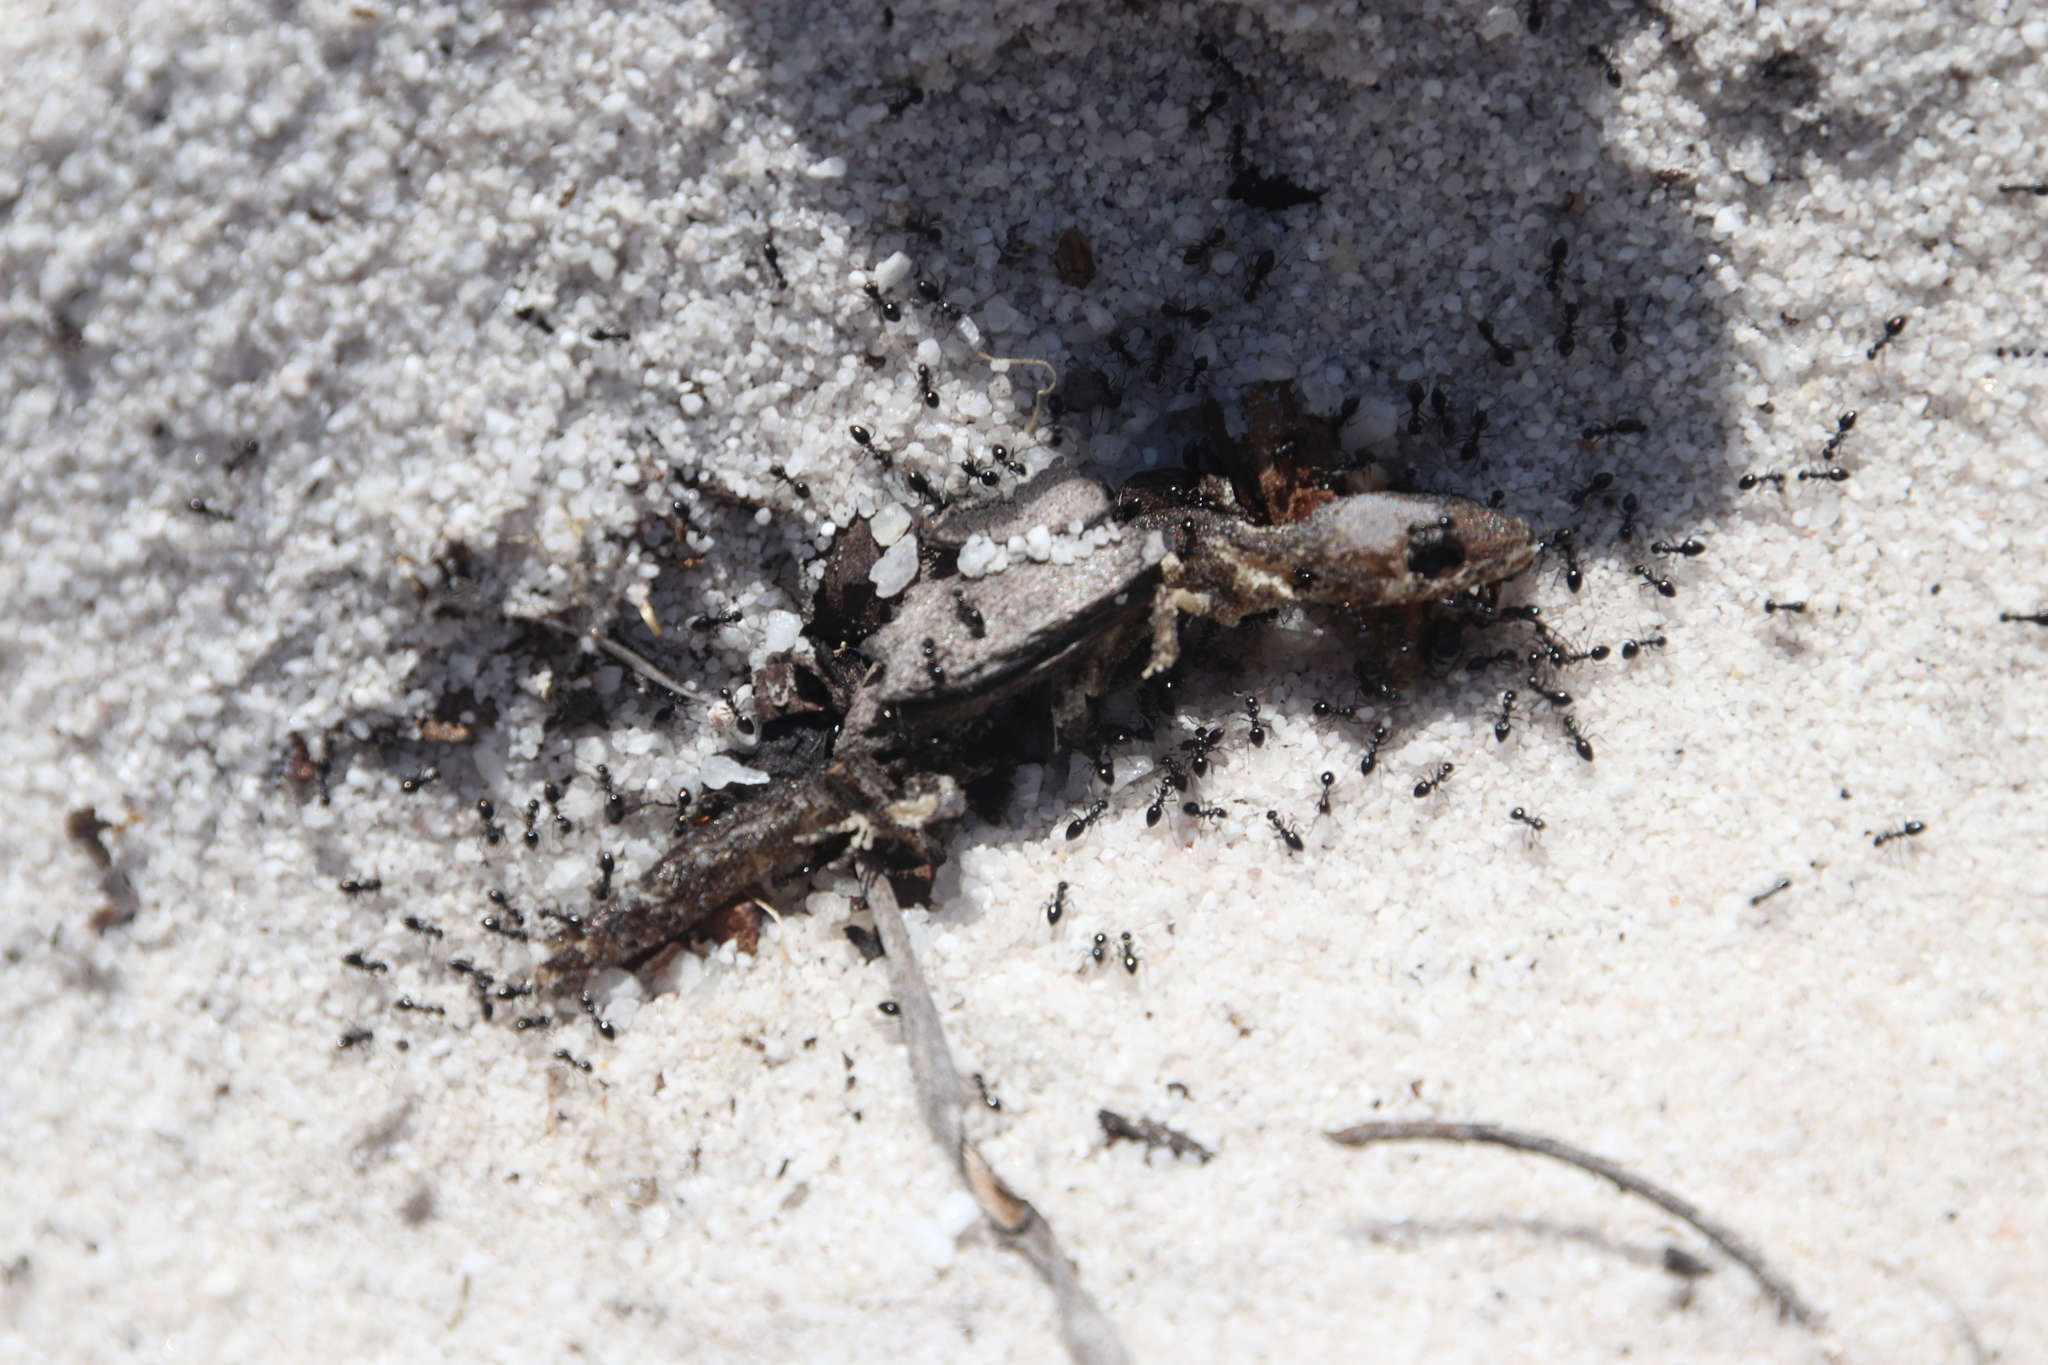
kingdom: Animalia
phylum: Chordata
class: Squamata
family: Gekkonidae
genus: Afrogecko
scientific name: Afrogecko porphyreus
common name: Marbled leaf-toed gecko
